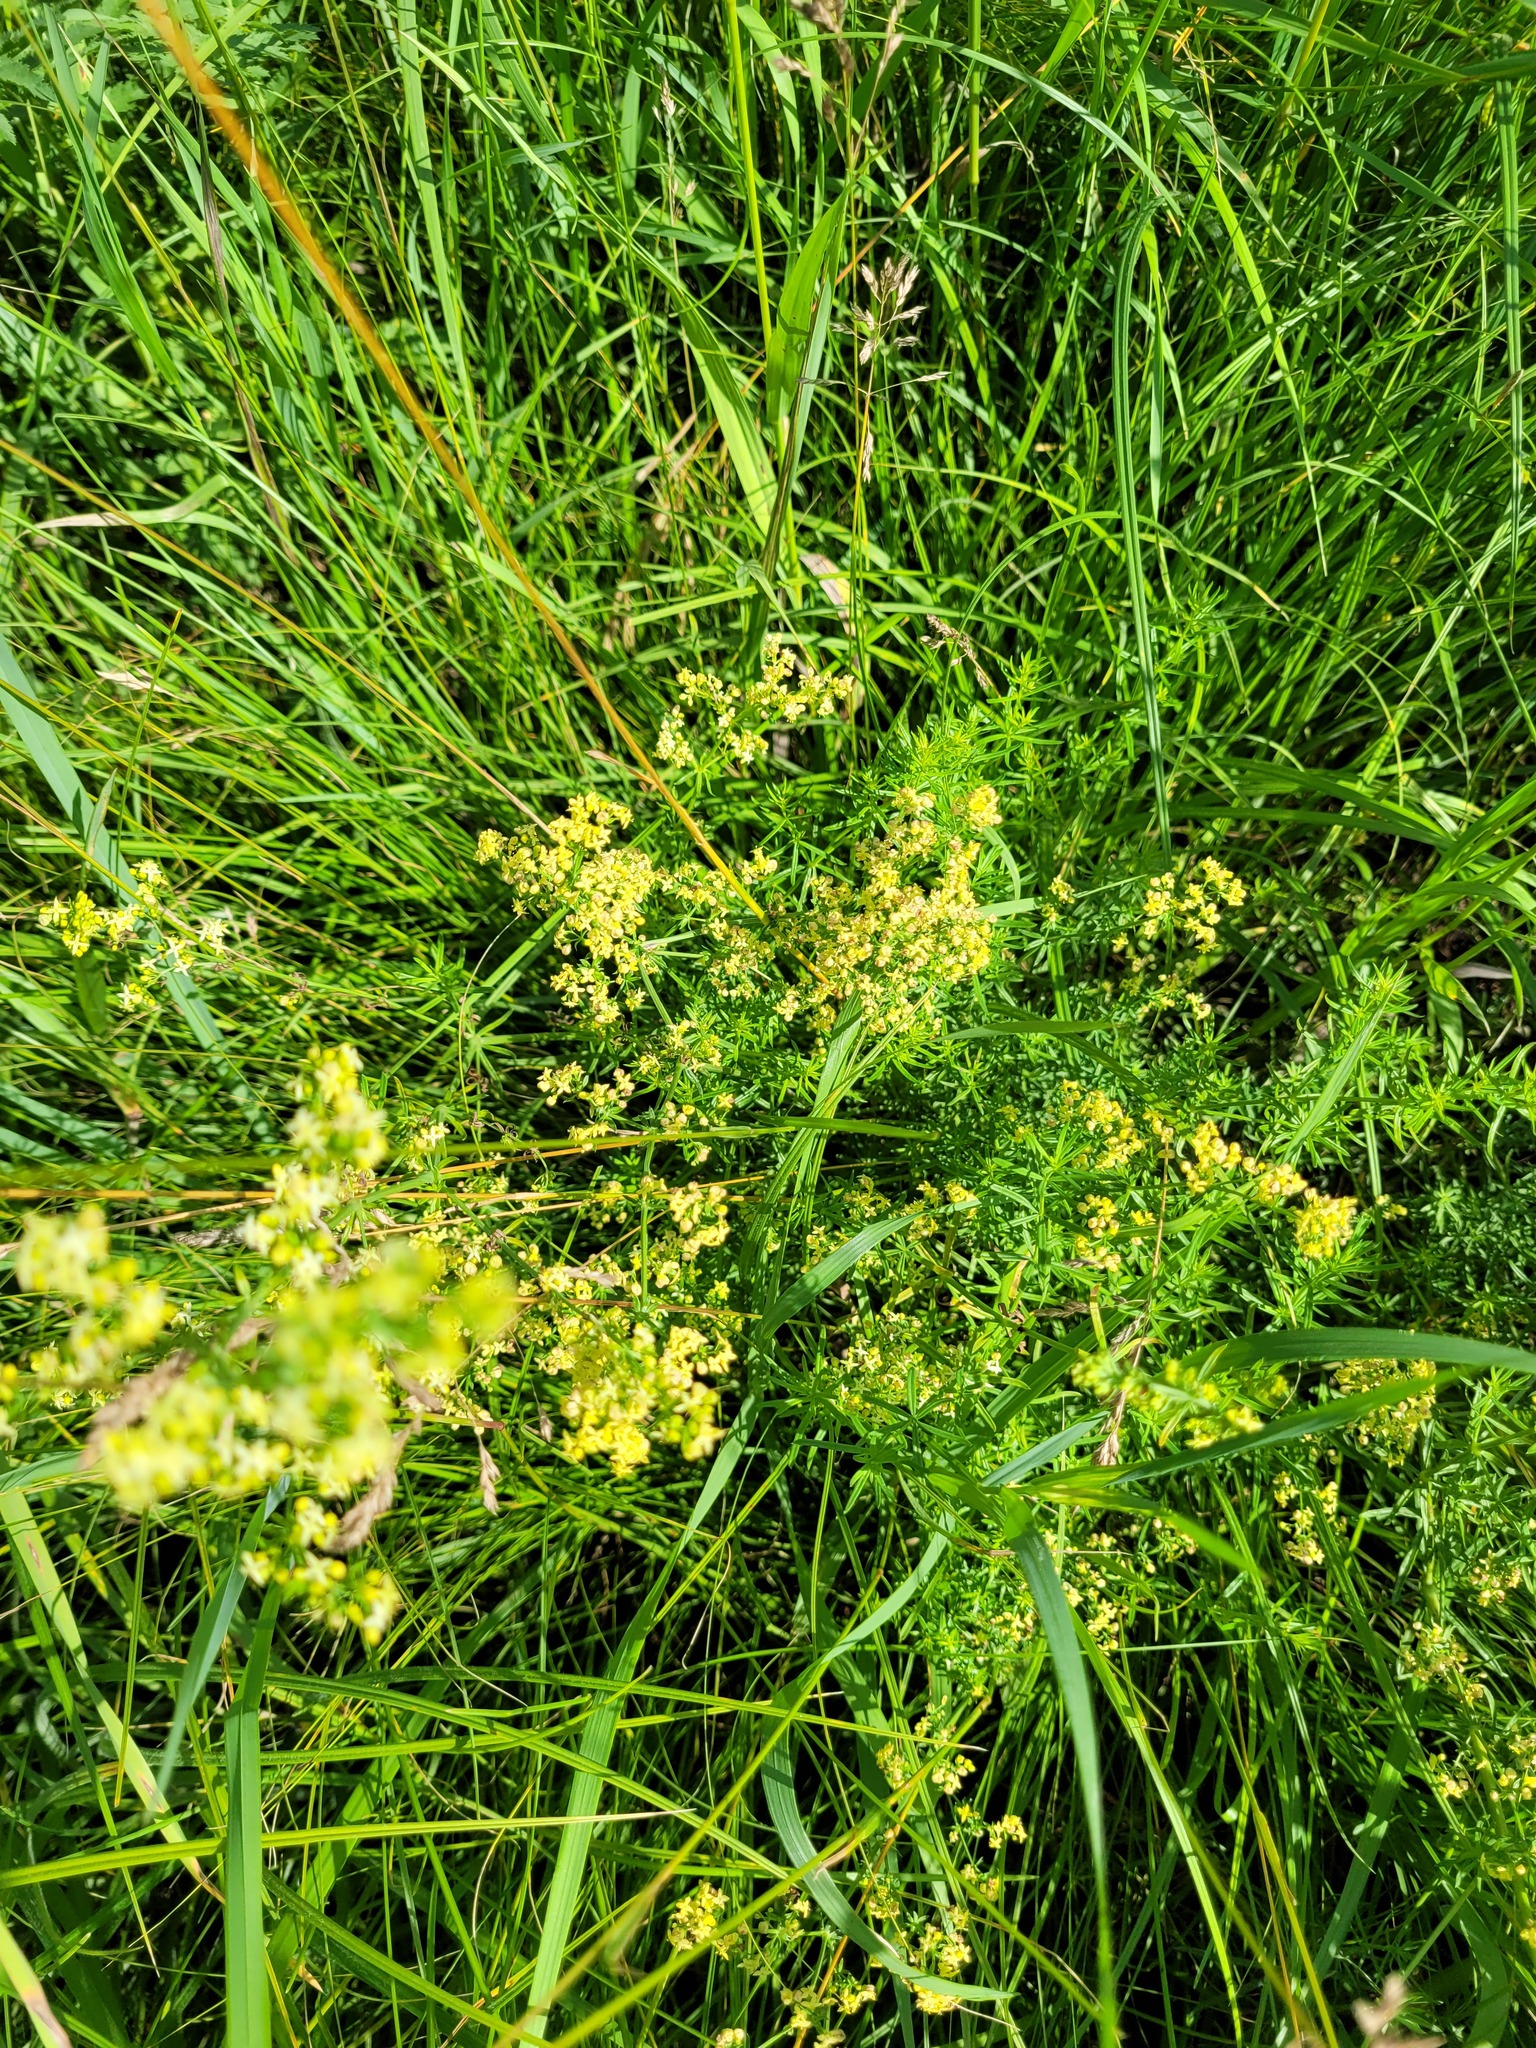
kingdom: Plantae
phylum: Tracheophyta
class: Magnoliopsida
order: Gentianales
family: Rubiaceae
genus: Galium
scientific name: Galium pomeranicum
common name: Bedstraw
